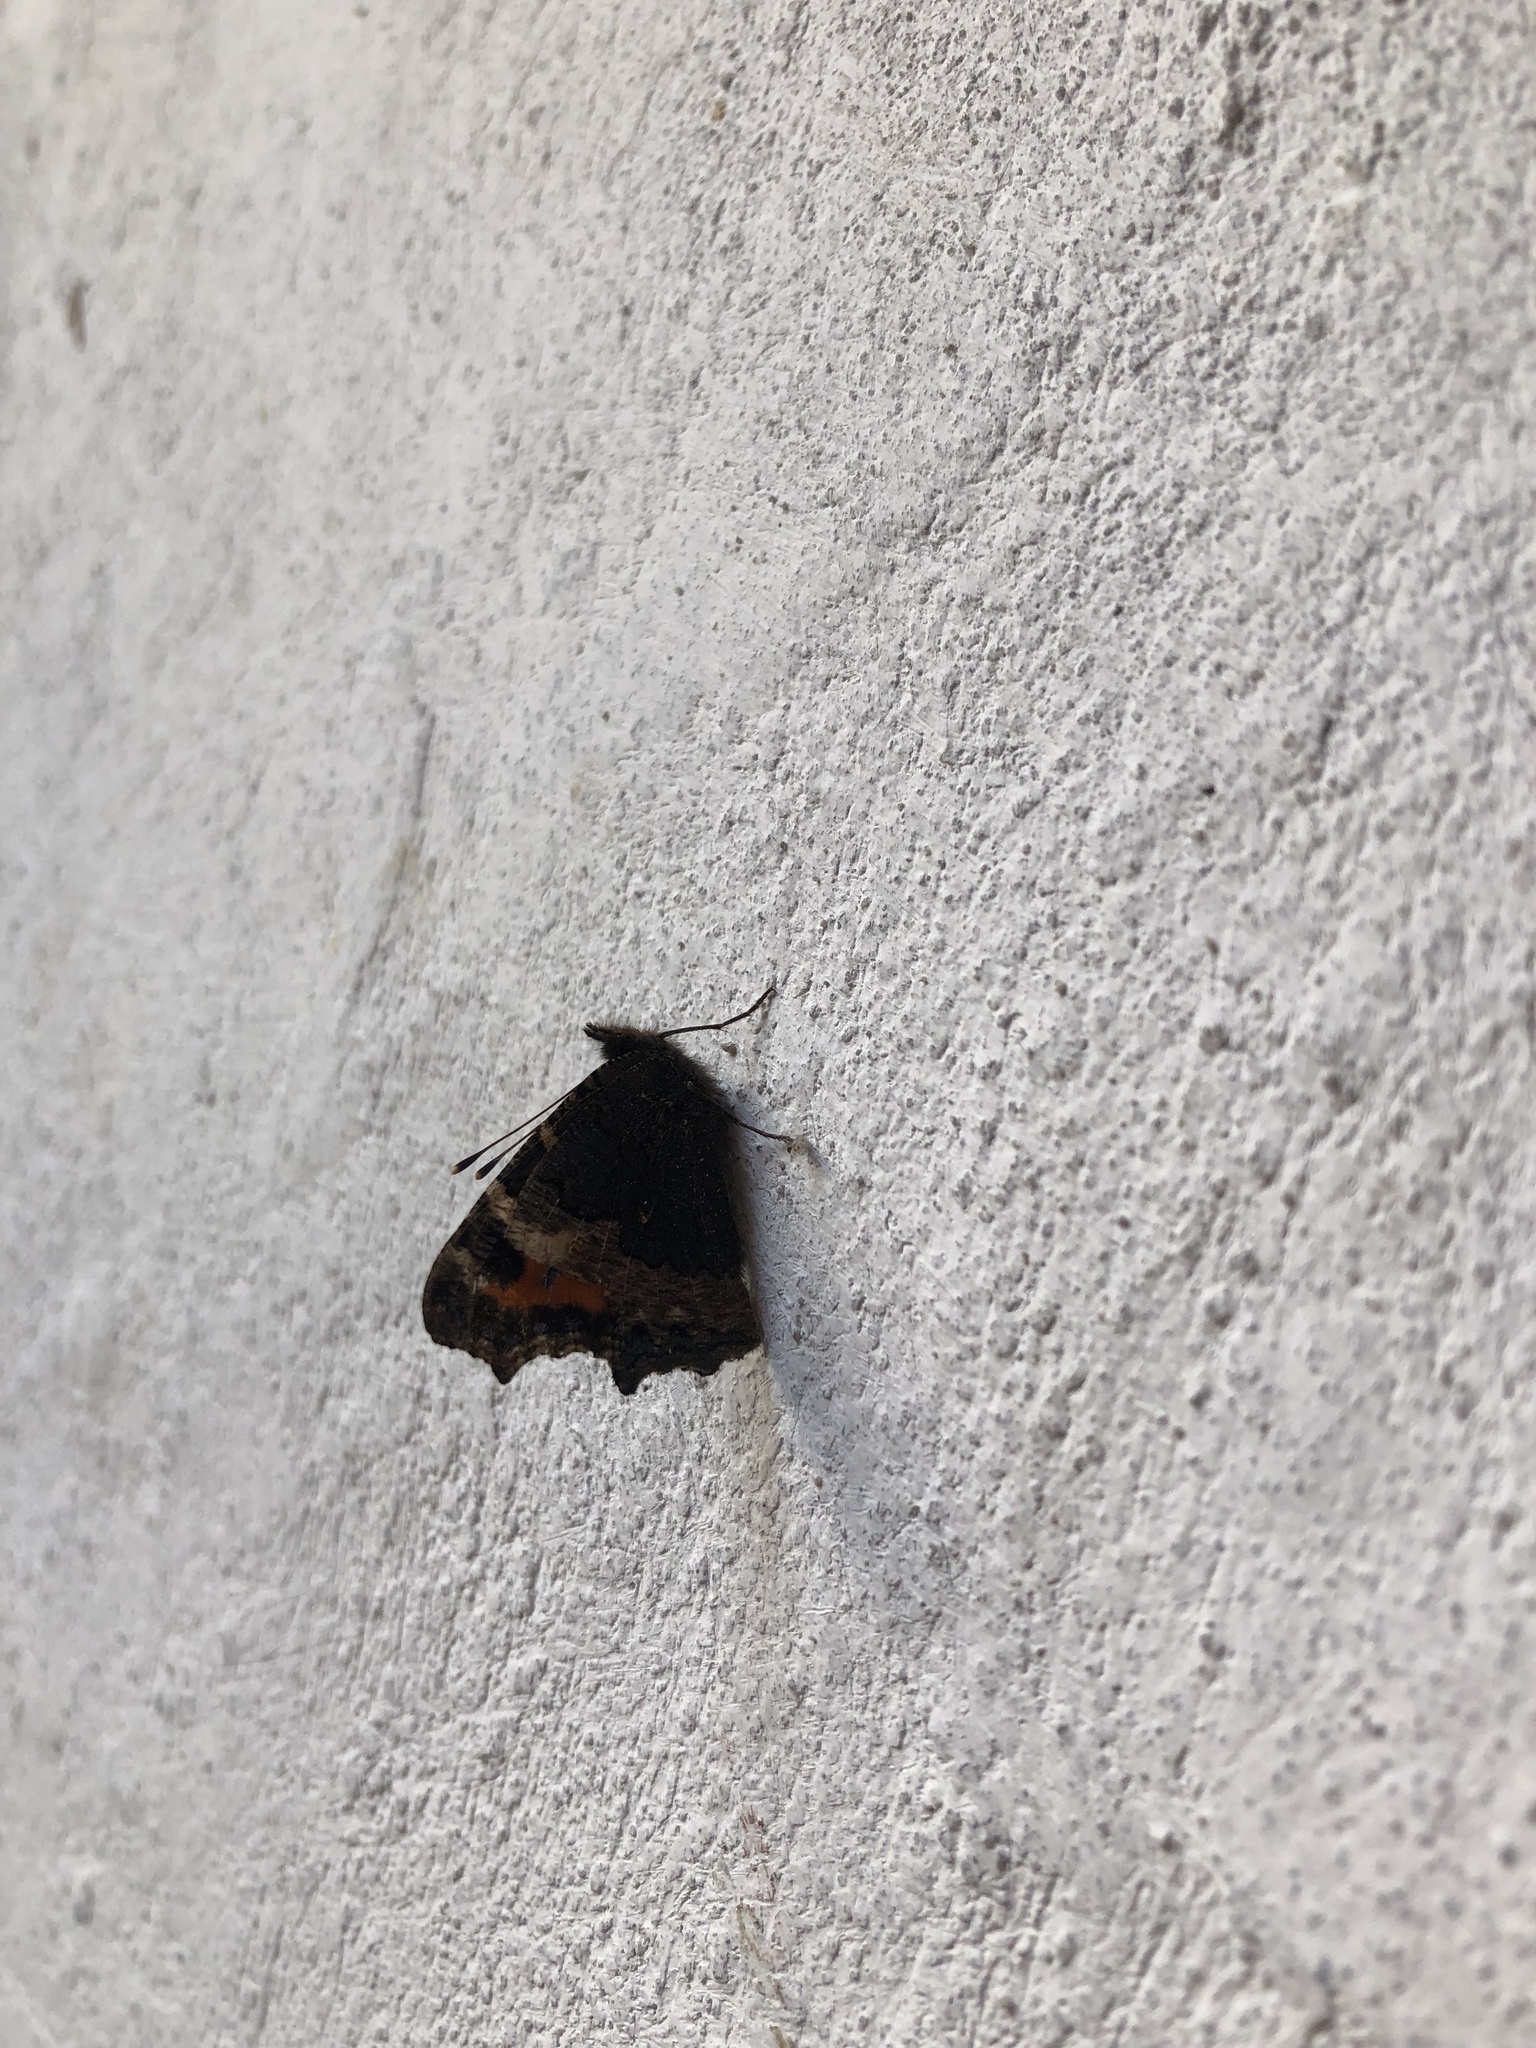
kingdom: Animalia
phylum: Arthropoda
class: Insecta
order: Lepidoptera
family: Nymphalidae
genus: Aglais
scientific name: Aglais urticae
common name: Small tortoiseshell
